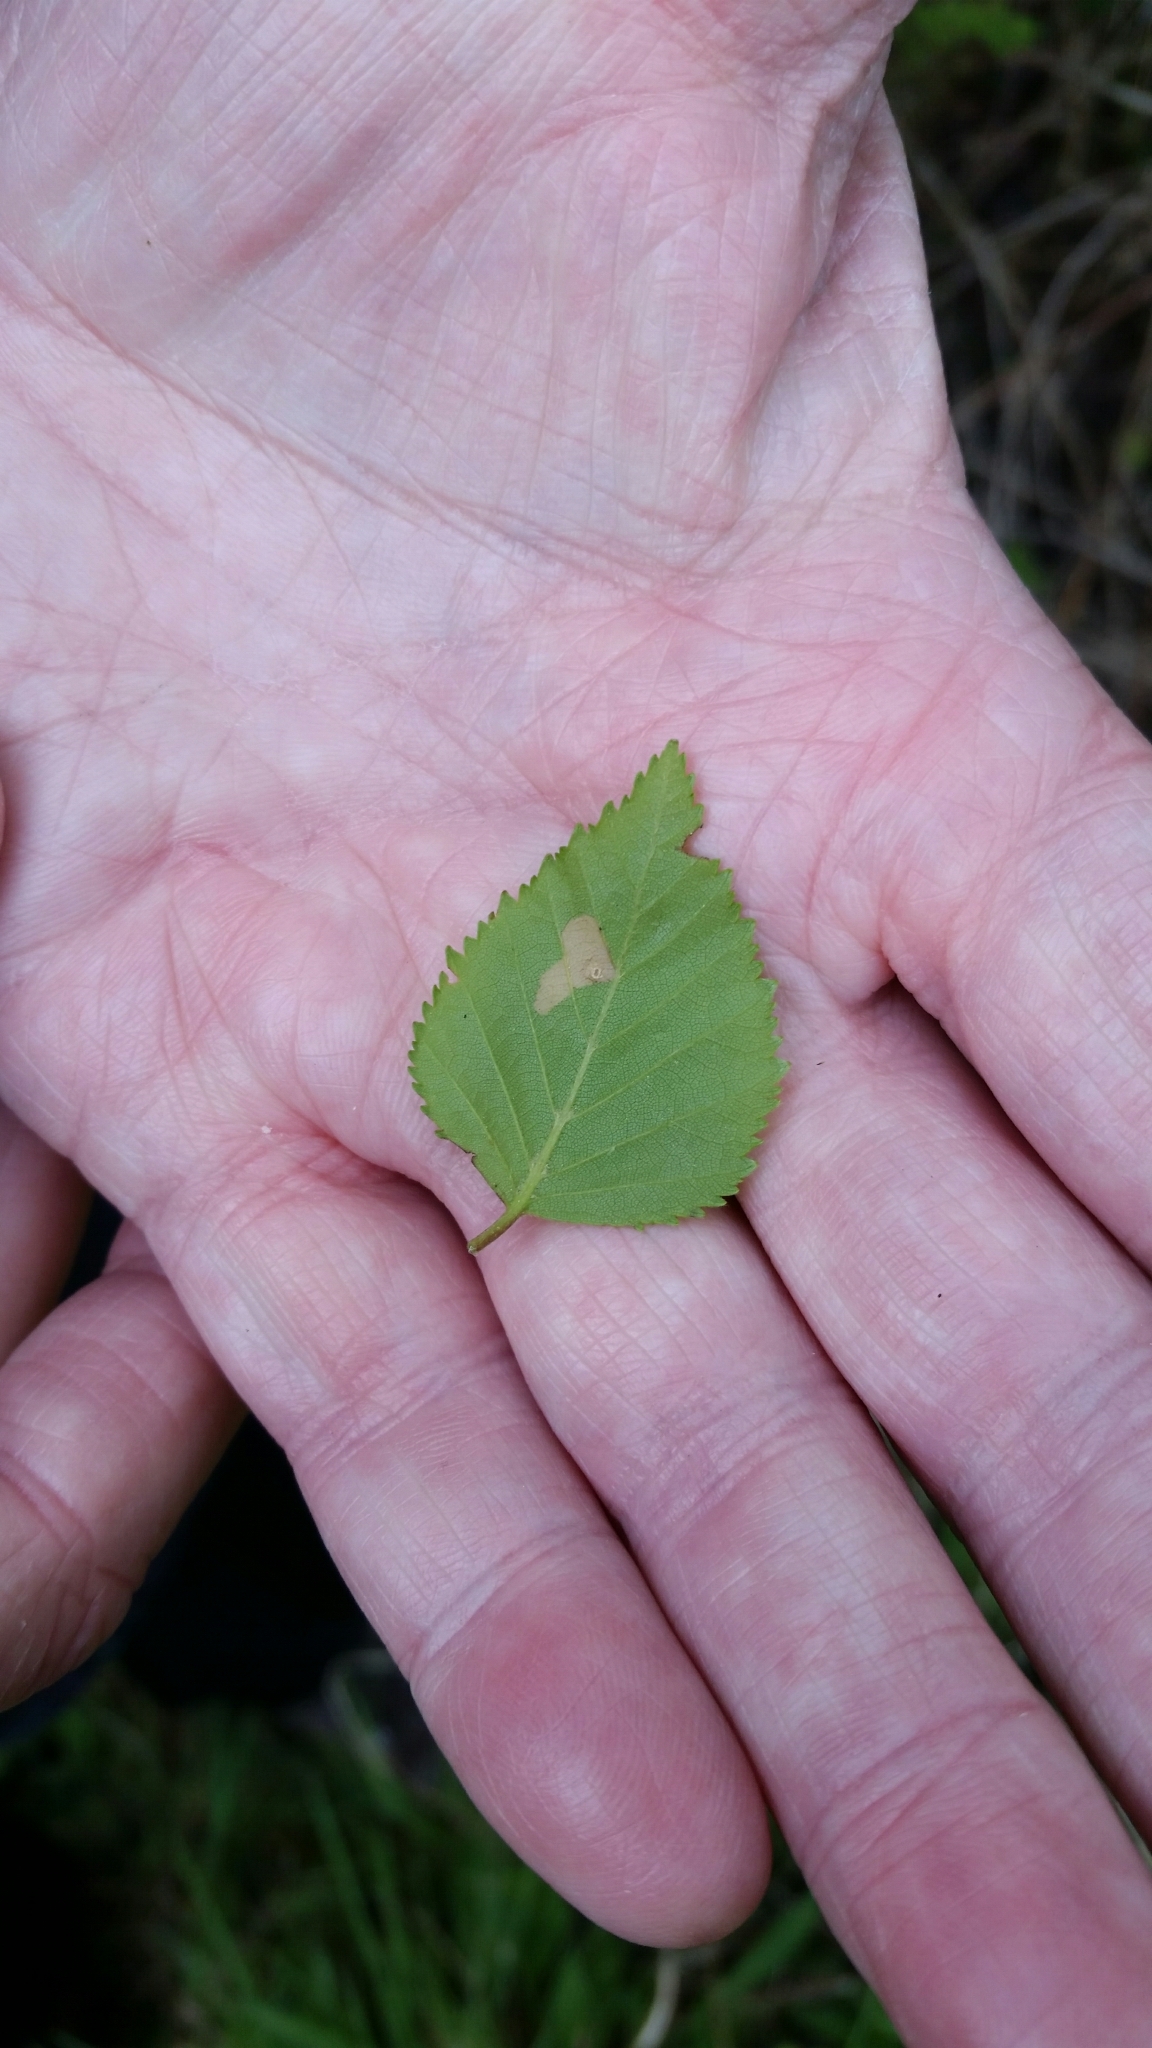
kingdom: Animalia
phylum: Arthropoda
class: Insecta
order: Lepidoptera
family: Coleophoridae
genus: Coleophora
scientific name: Coleophora serratella
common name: Common case-bearer
